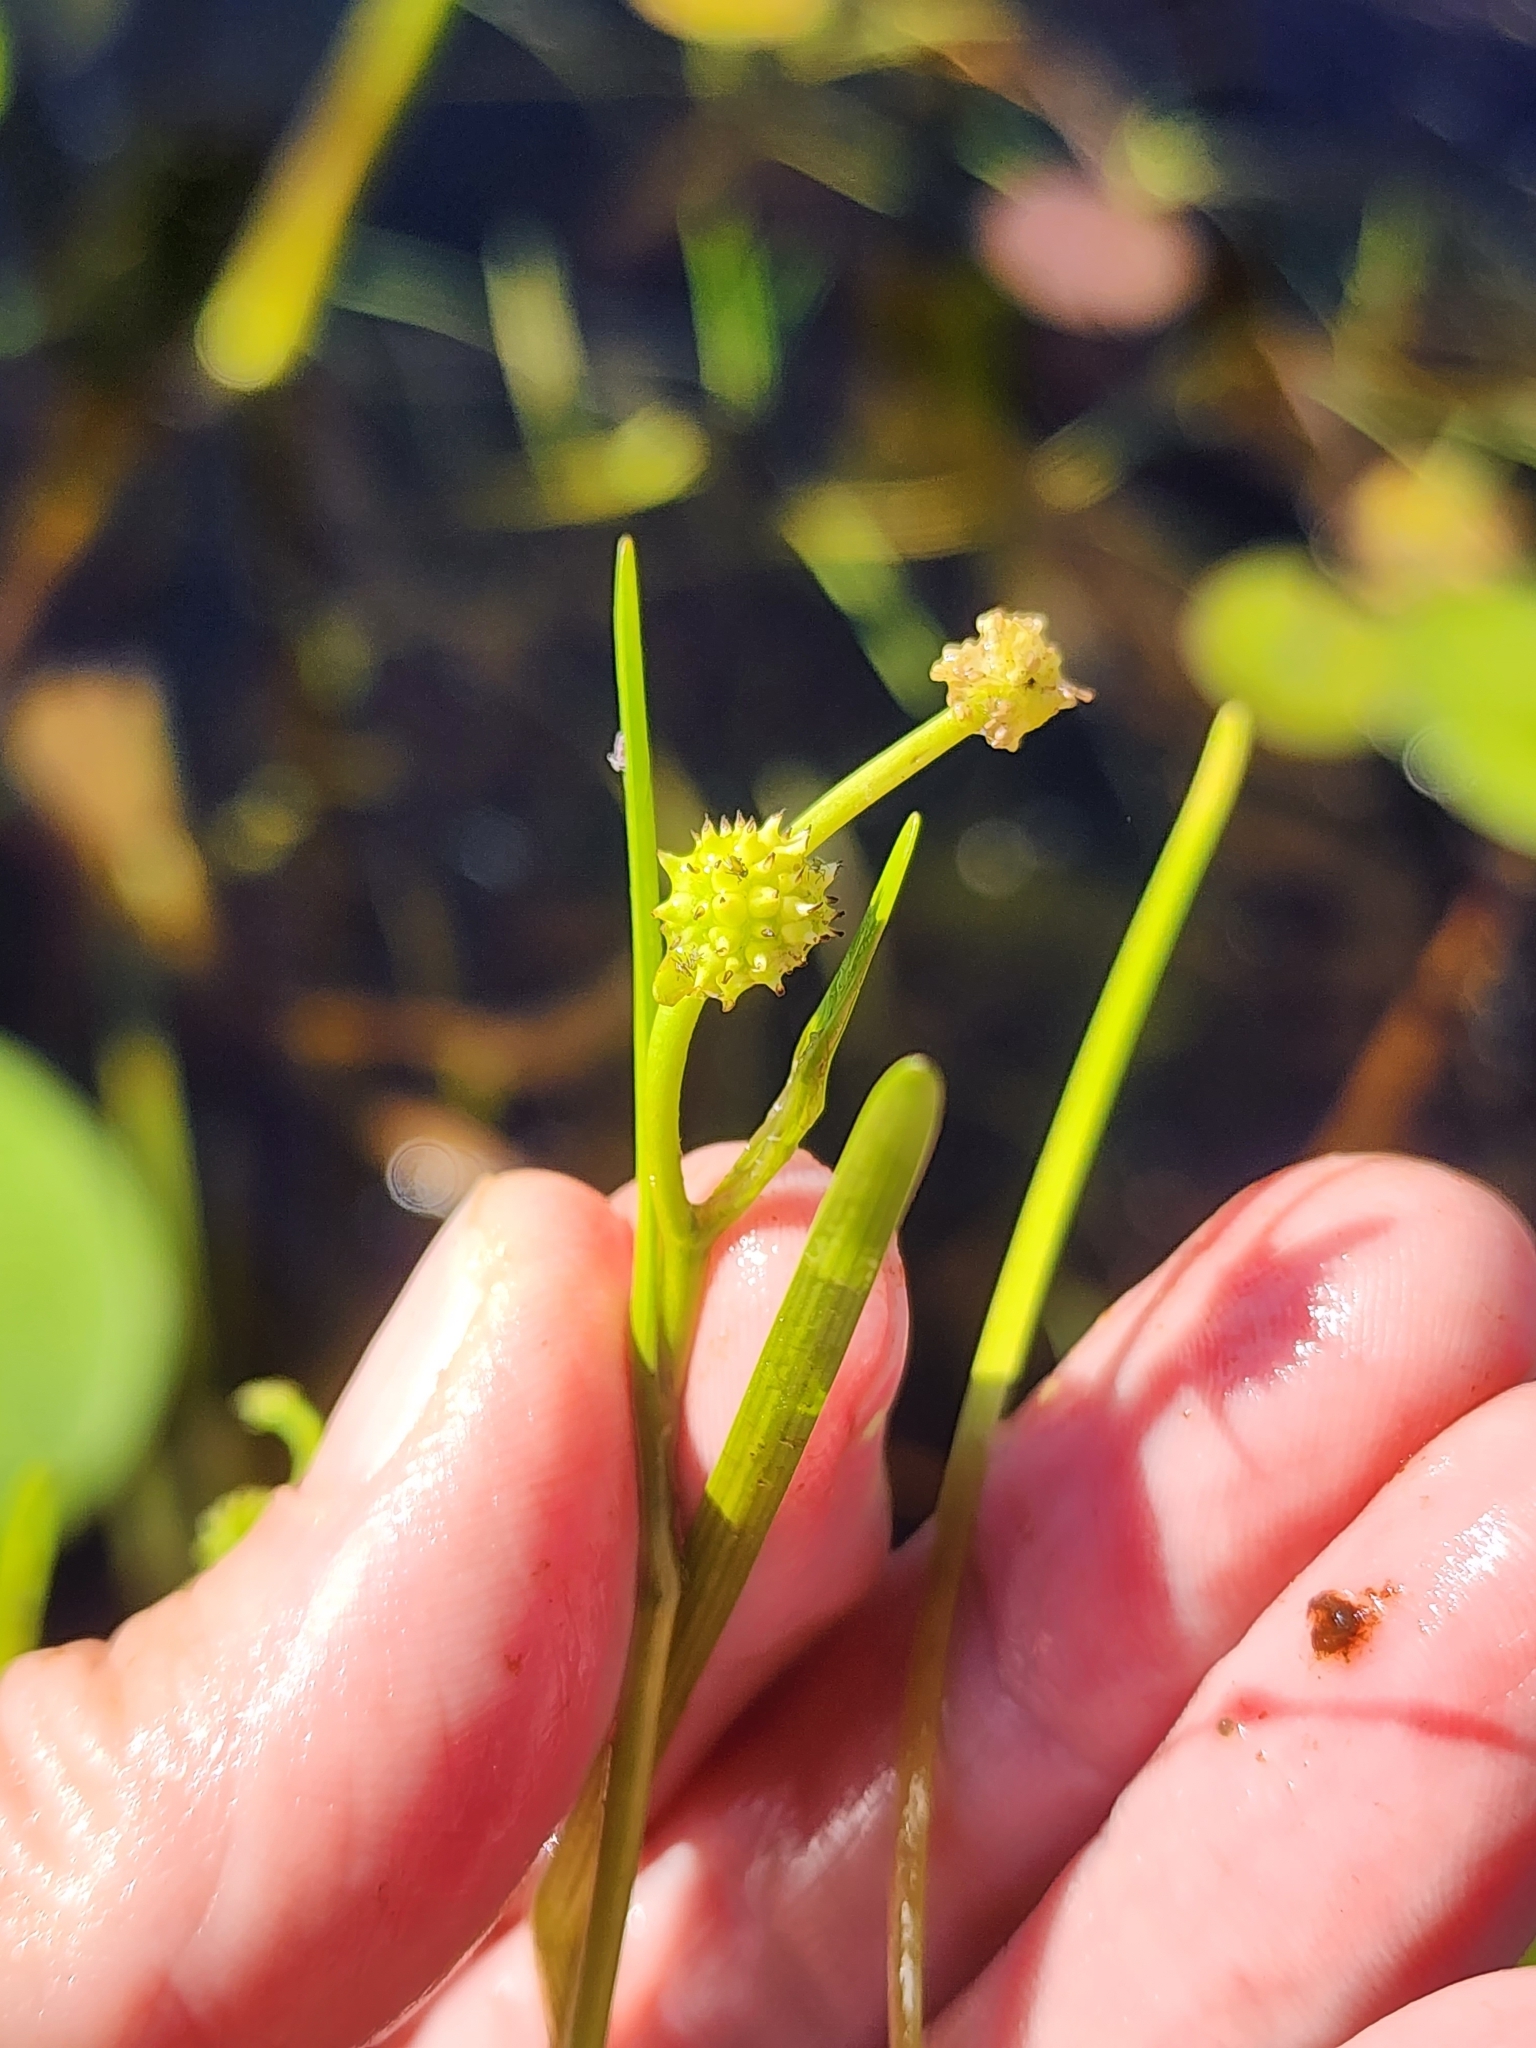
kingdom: Plantae
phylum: Tracheophyta
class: Liliopsida
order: Poales
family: Typhaceae
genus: Sparganium
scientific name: Sparganium natans
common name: Least bur-reed
